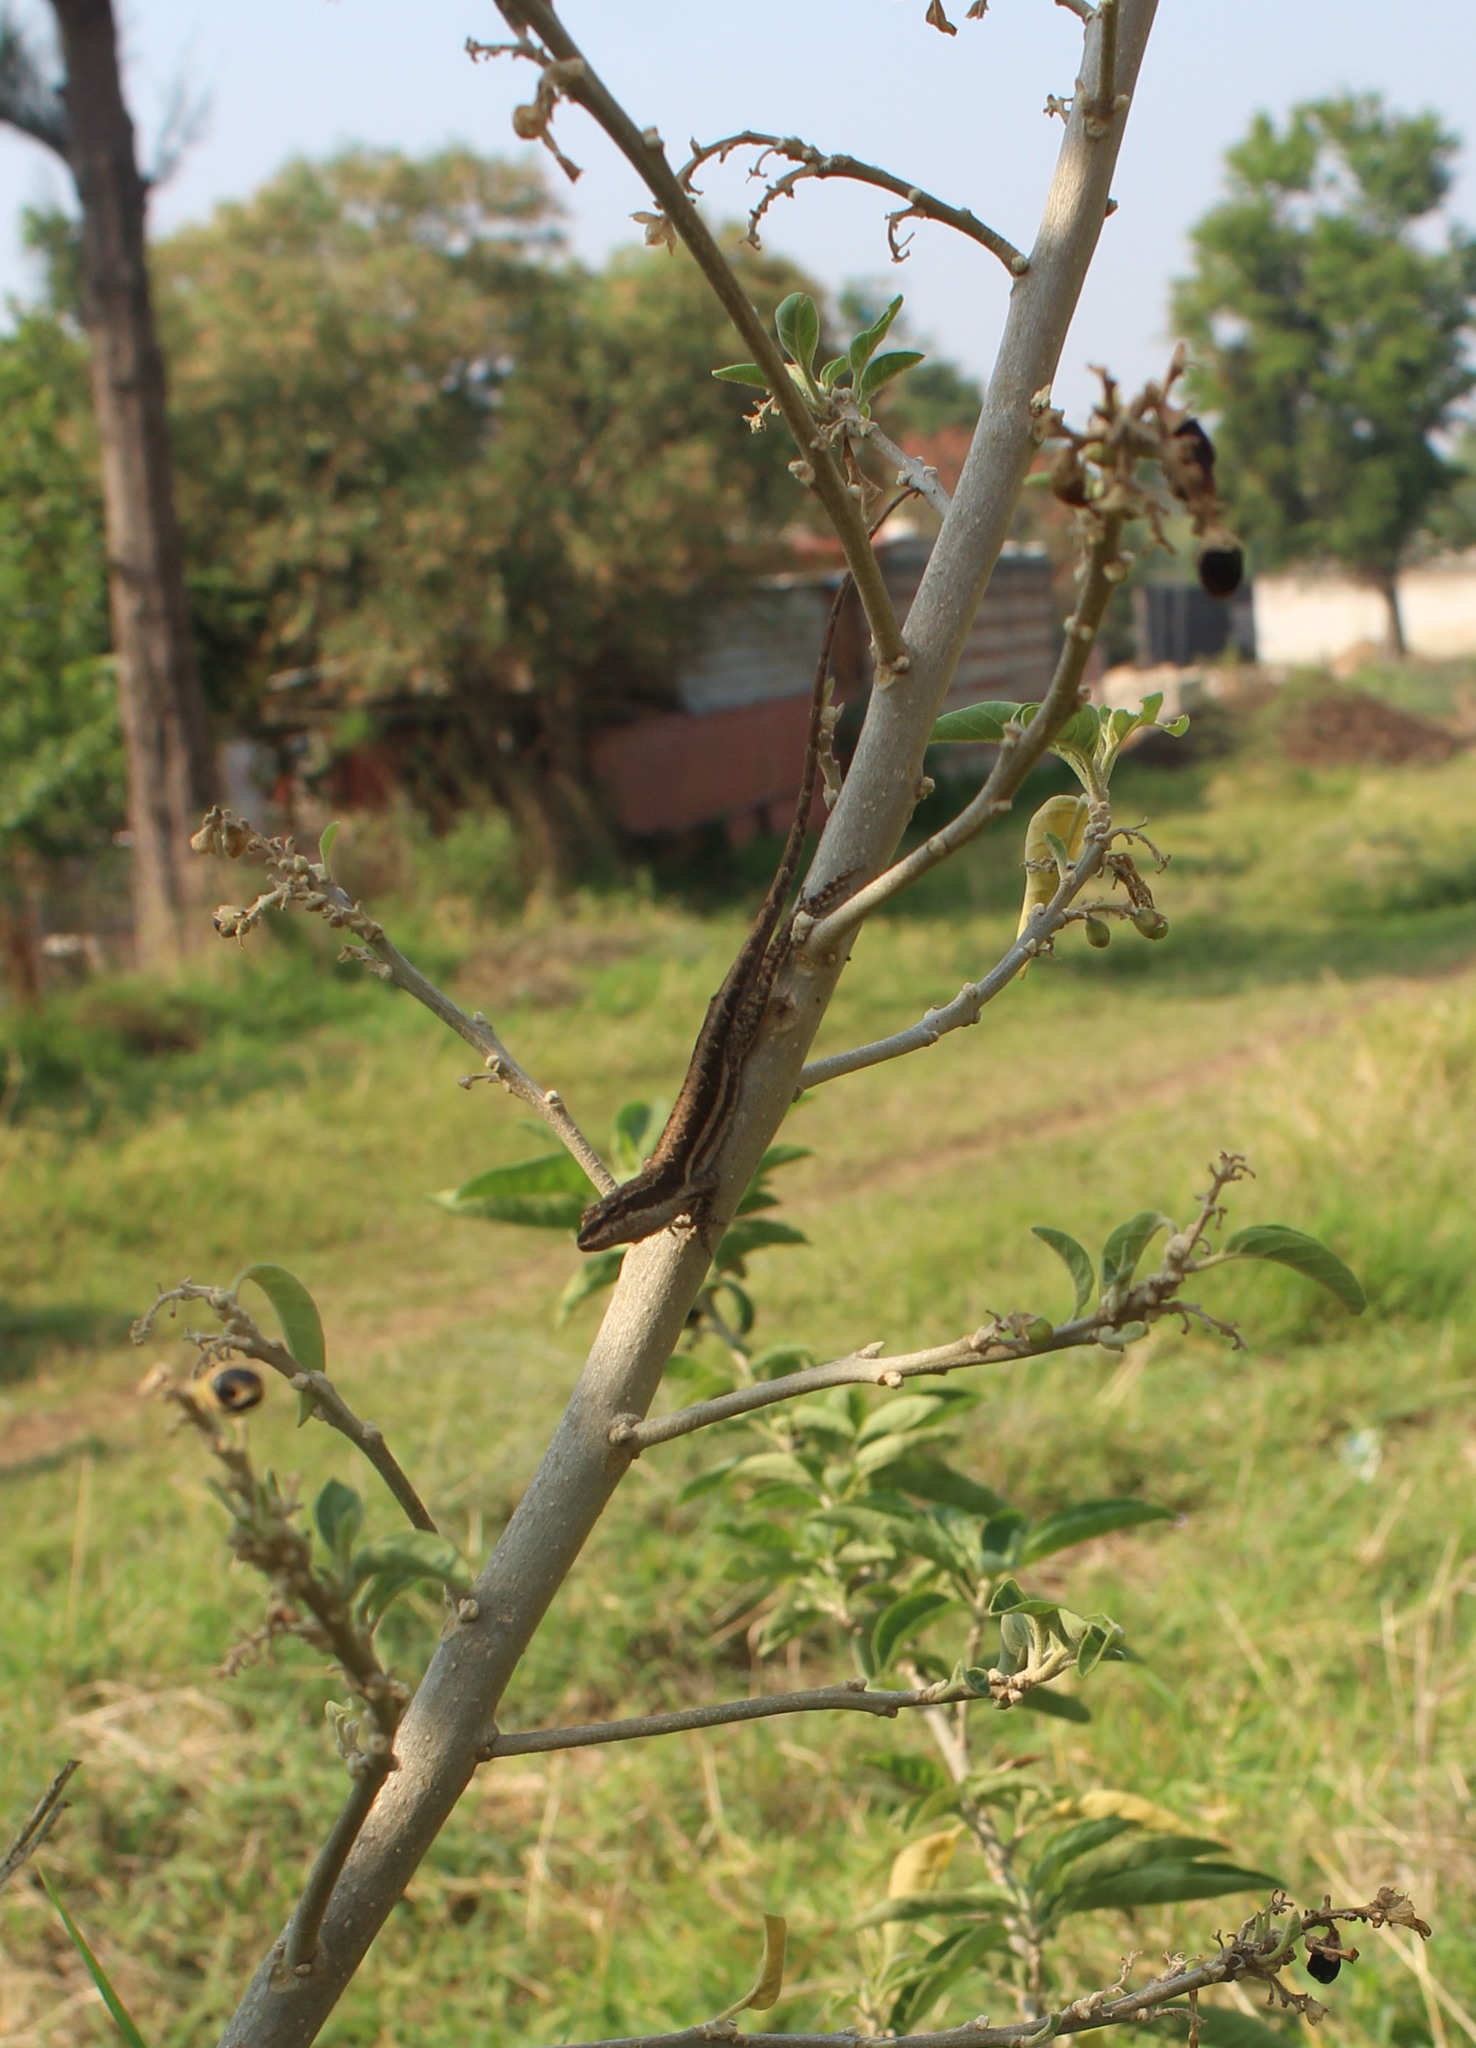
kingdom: Animalia
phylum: Chordata
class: Squamata
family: Dactyloidae
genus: Anolis
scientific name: Anolis quercorum
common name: Gray anole
